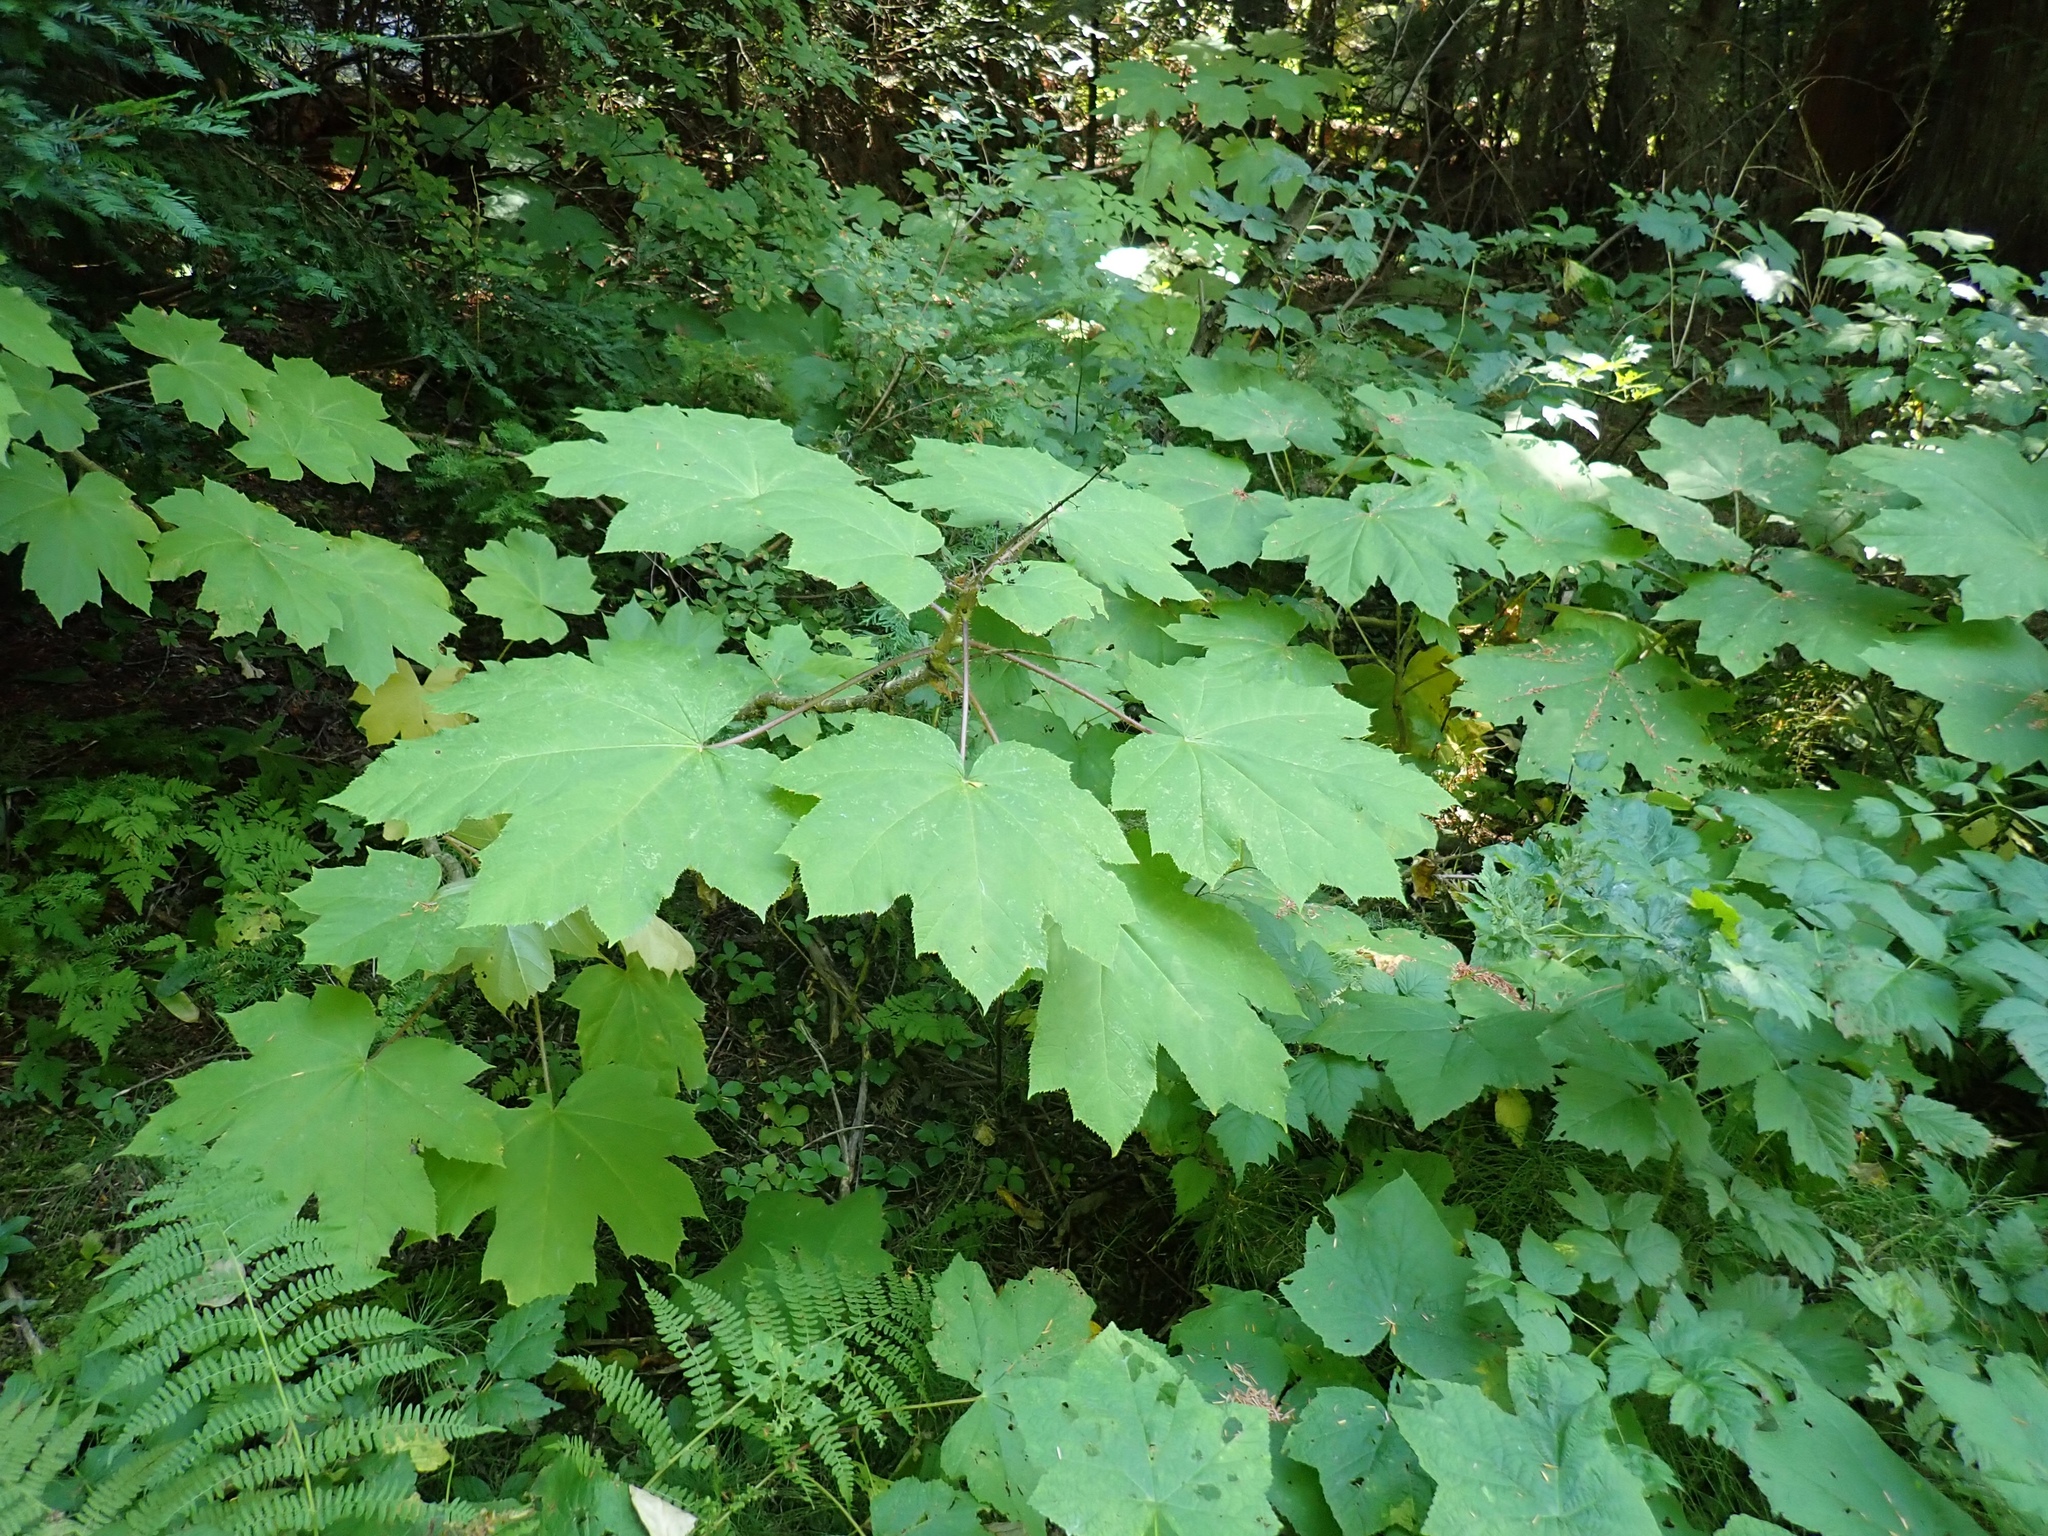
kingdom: Plantae
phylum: Tracheophyta
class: Magnoliopsida
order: Apiales
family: Araliaceae
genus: Oplopanax
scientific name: Oplopanax horridus
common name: Devil's walking-stick
